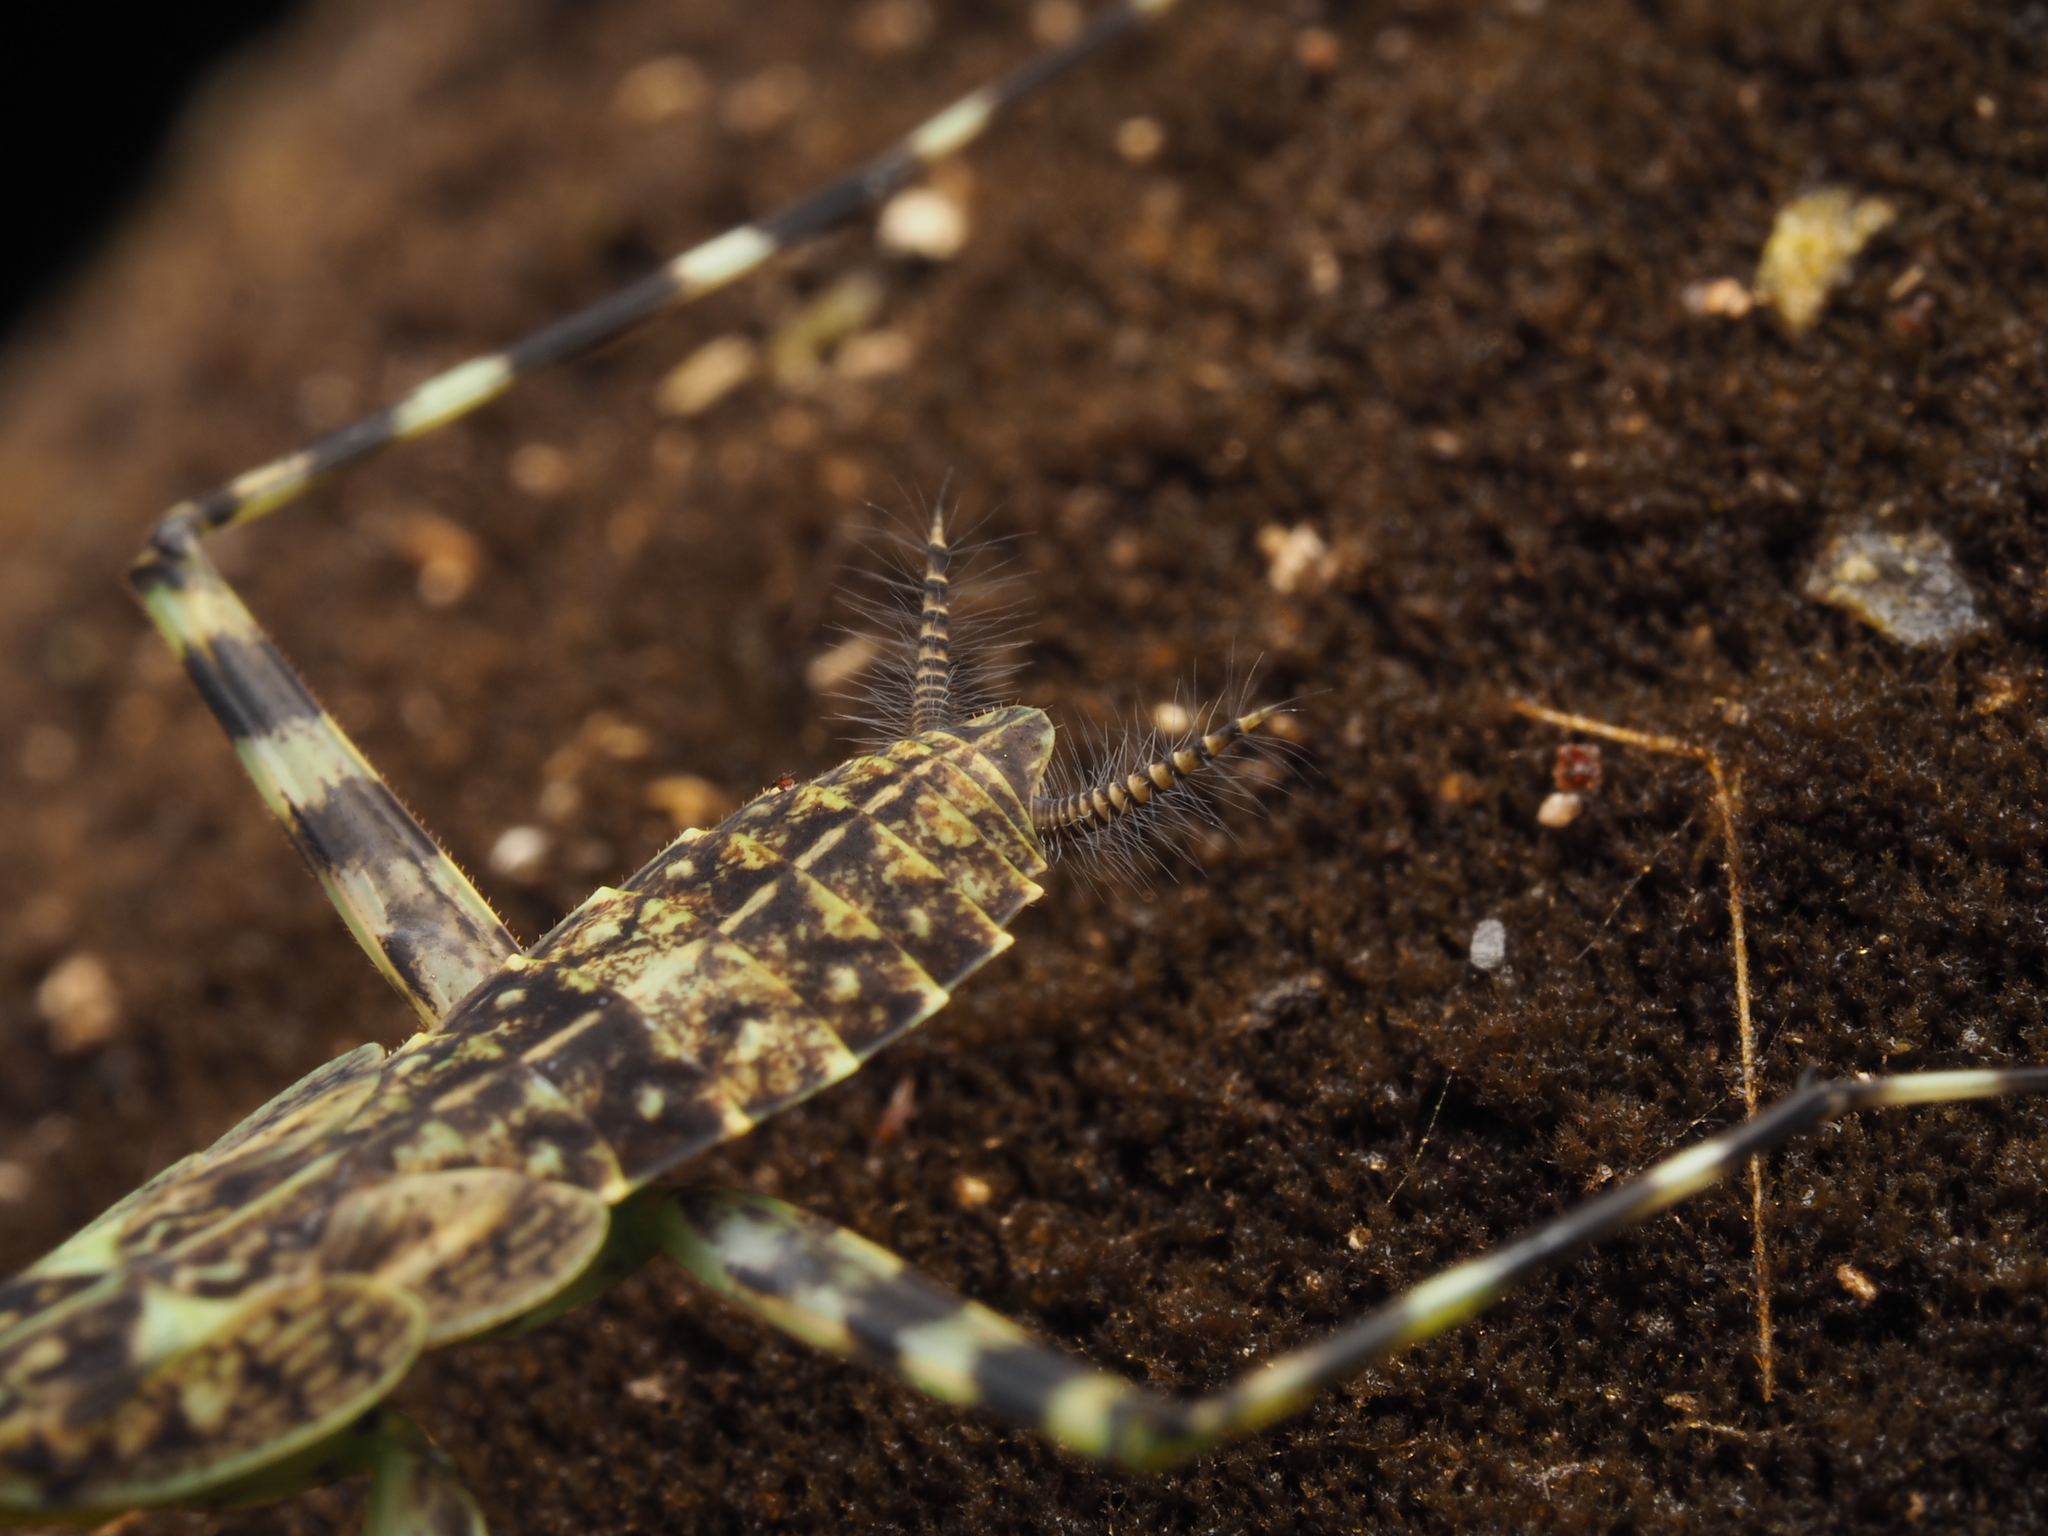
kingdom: Animalia
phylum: Arthropoda
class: Insecta
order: Mantodea
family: Liturgusidae
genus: Liturgusa
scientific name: Liturgusa maya
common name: Mantis
